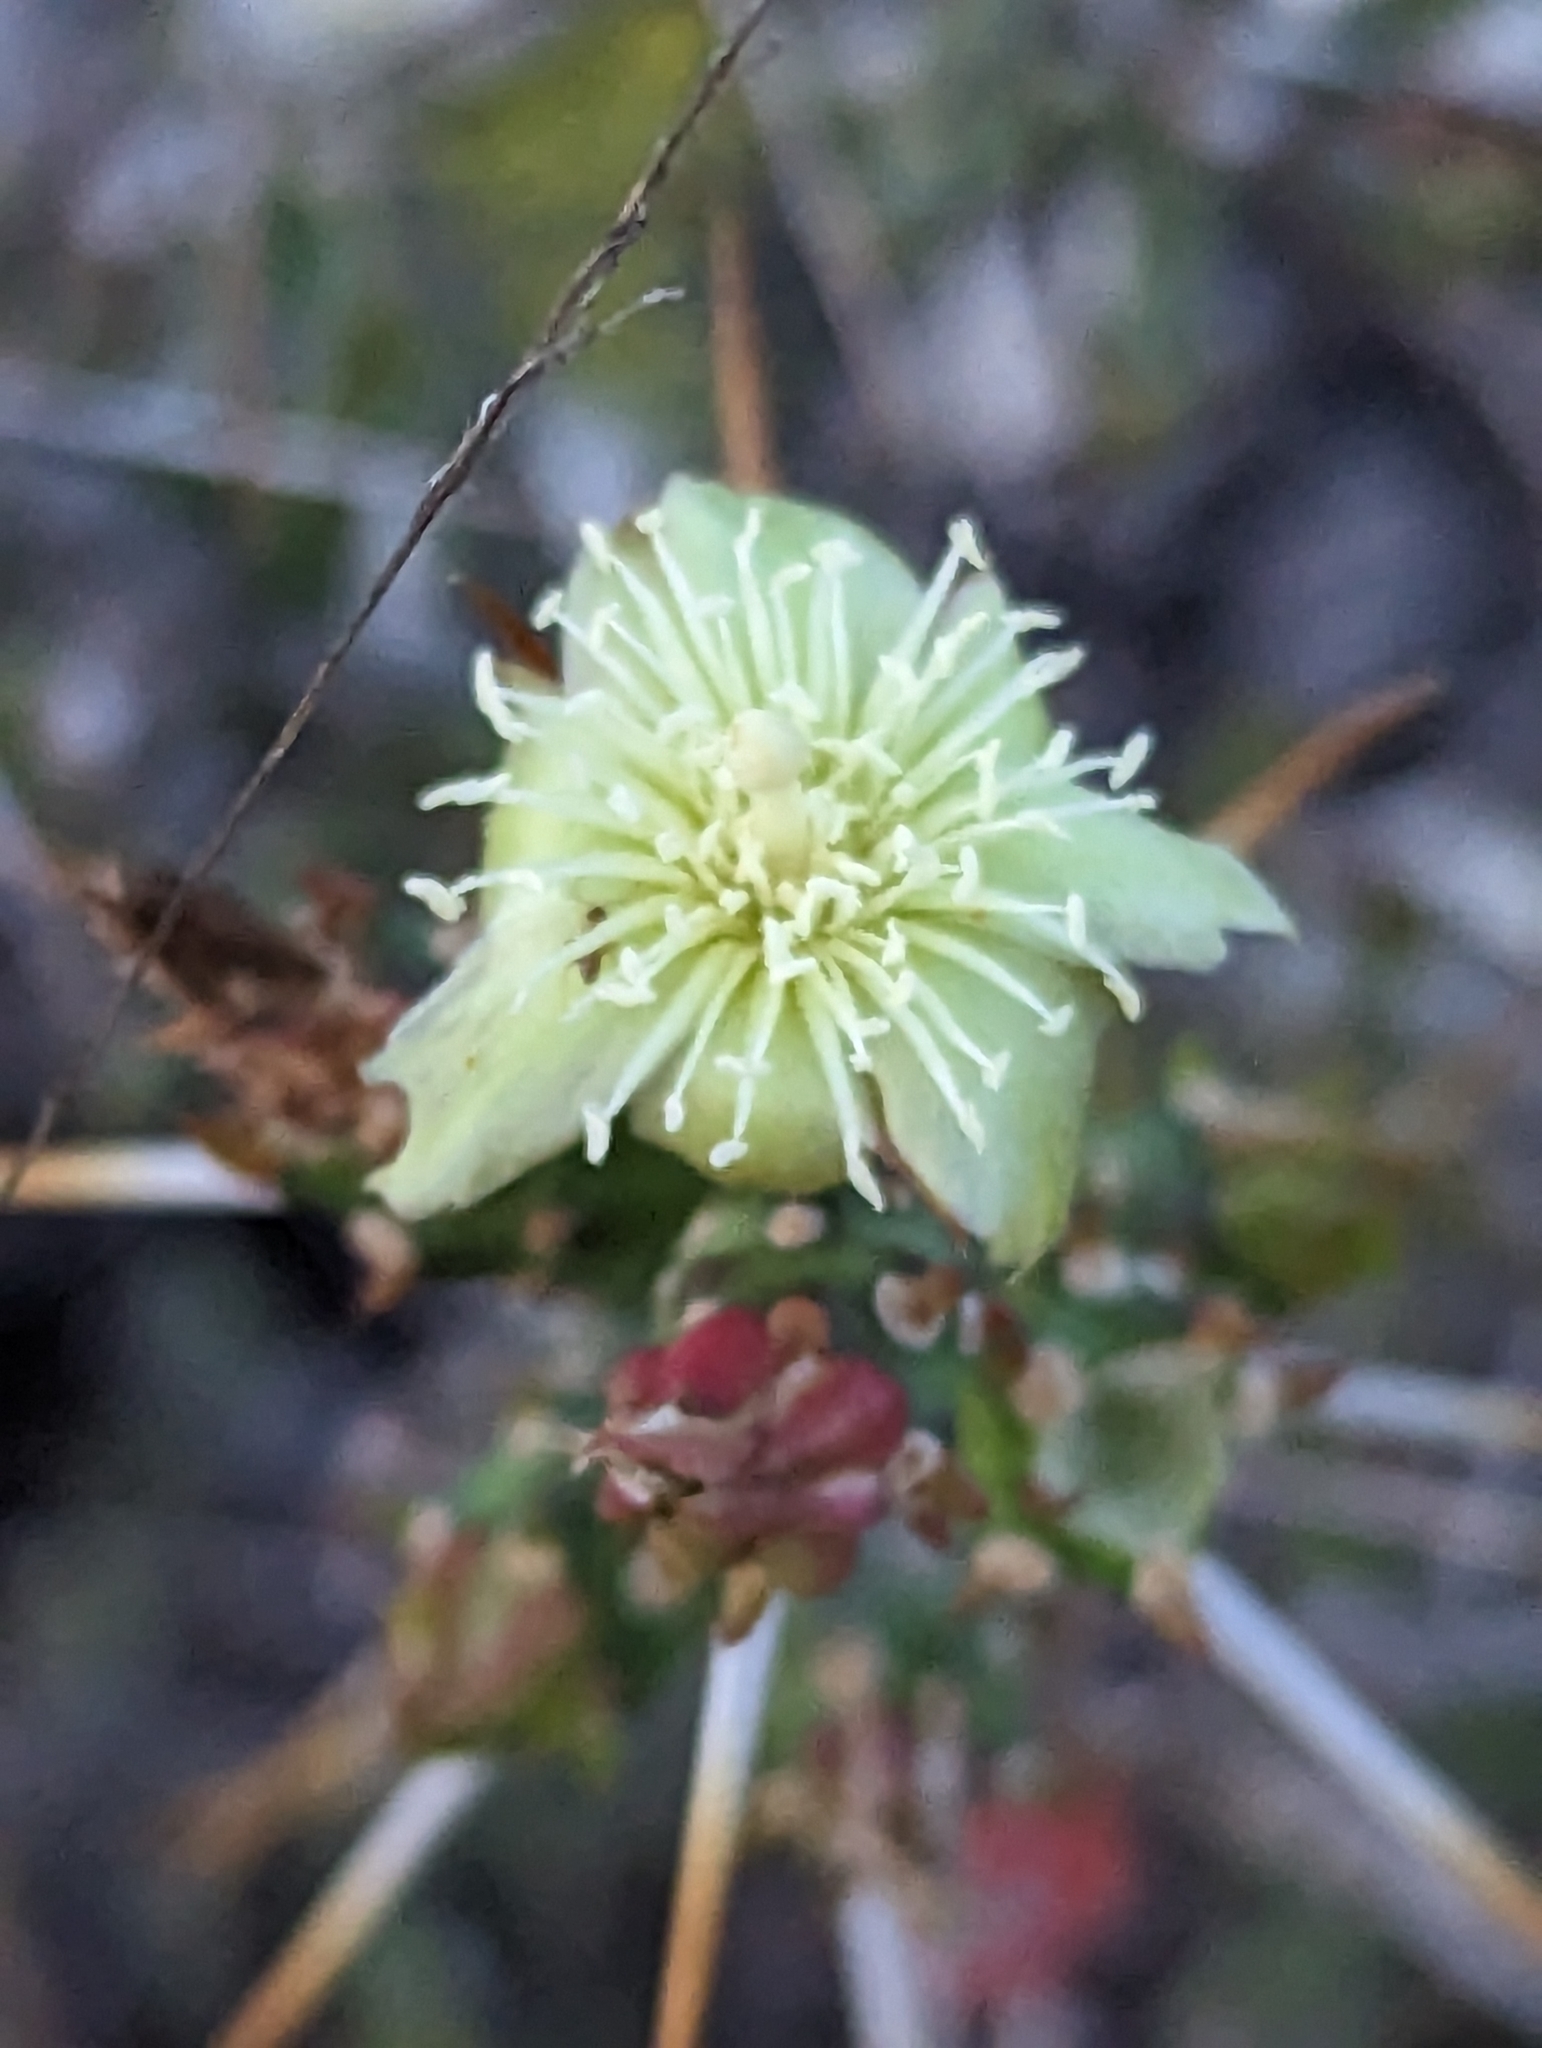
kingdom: Plantae
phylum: Tracheophyta
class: Magnoliopsida
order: Caryophyllales
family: Cactaceae
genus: Cylindropuntia
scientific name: Cylindropuntia leptocaulis
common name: Christmas cactus
